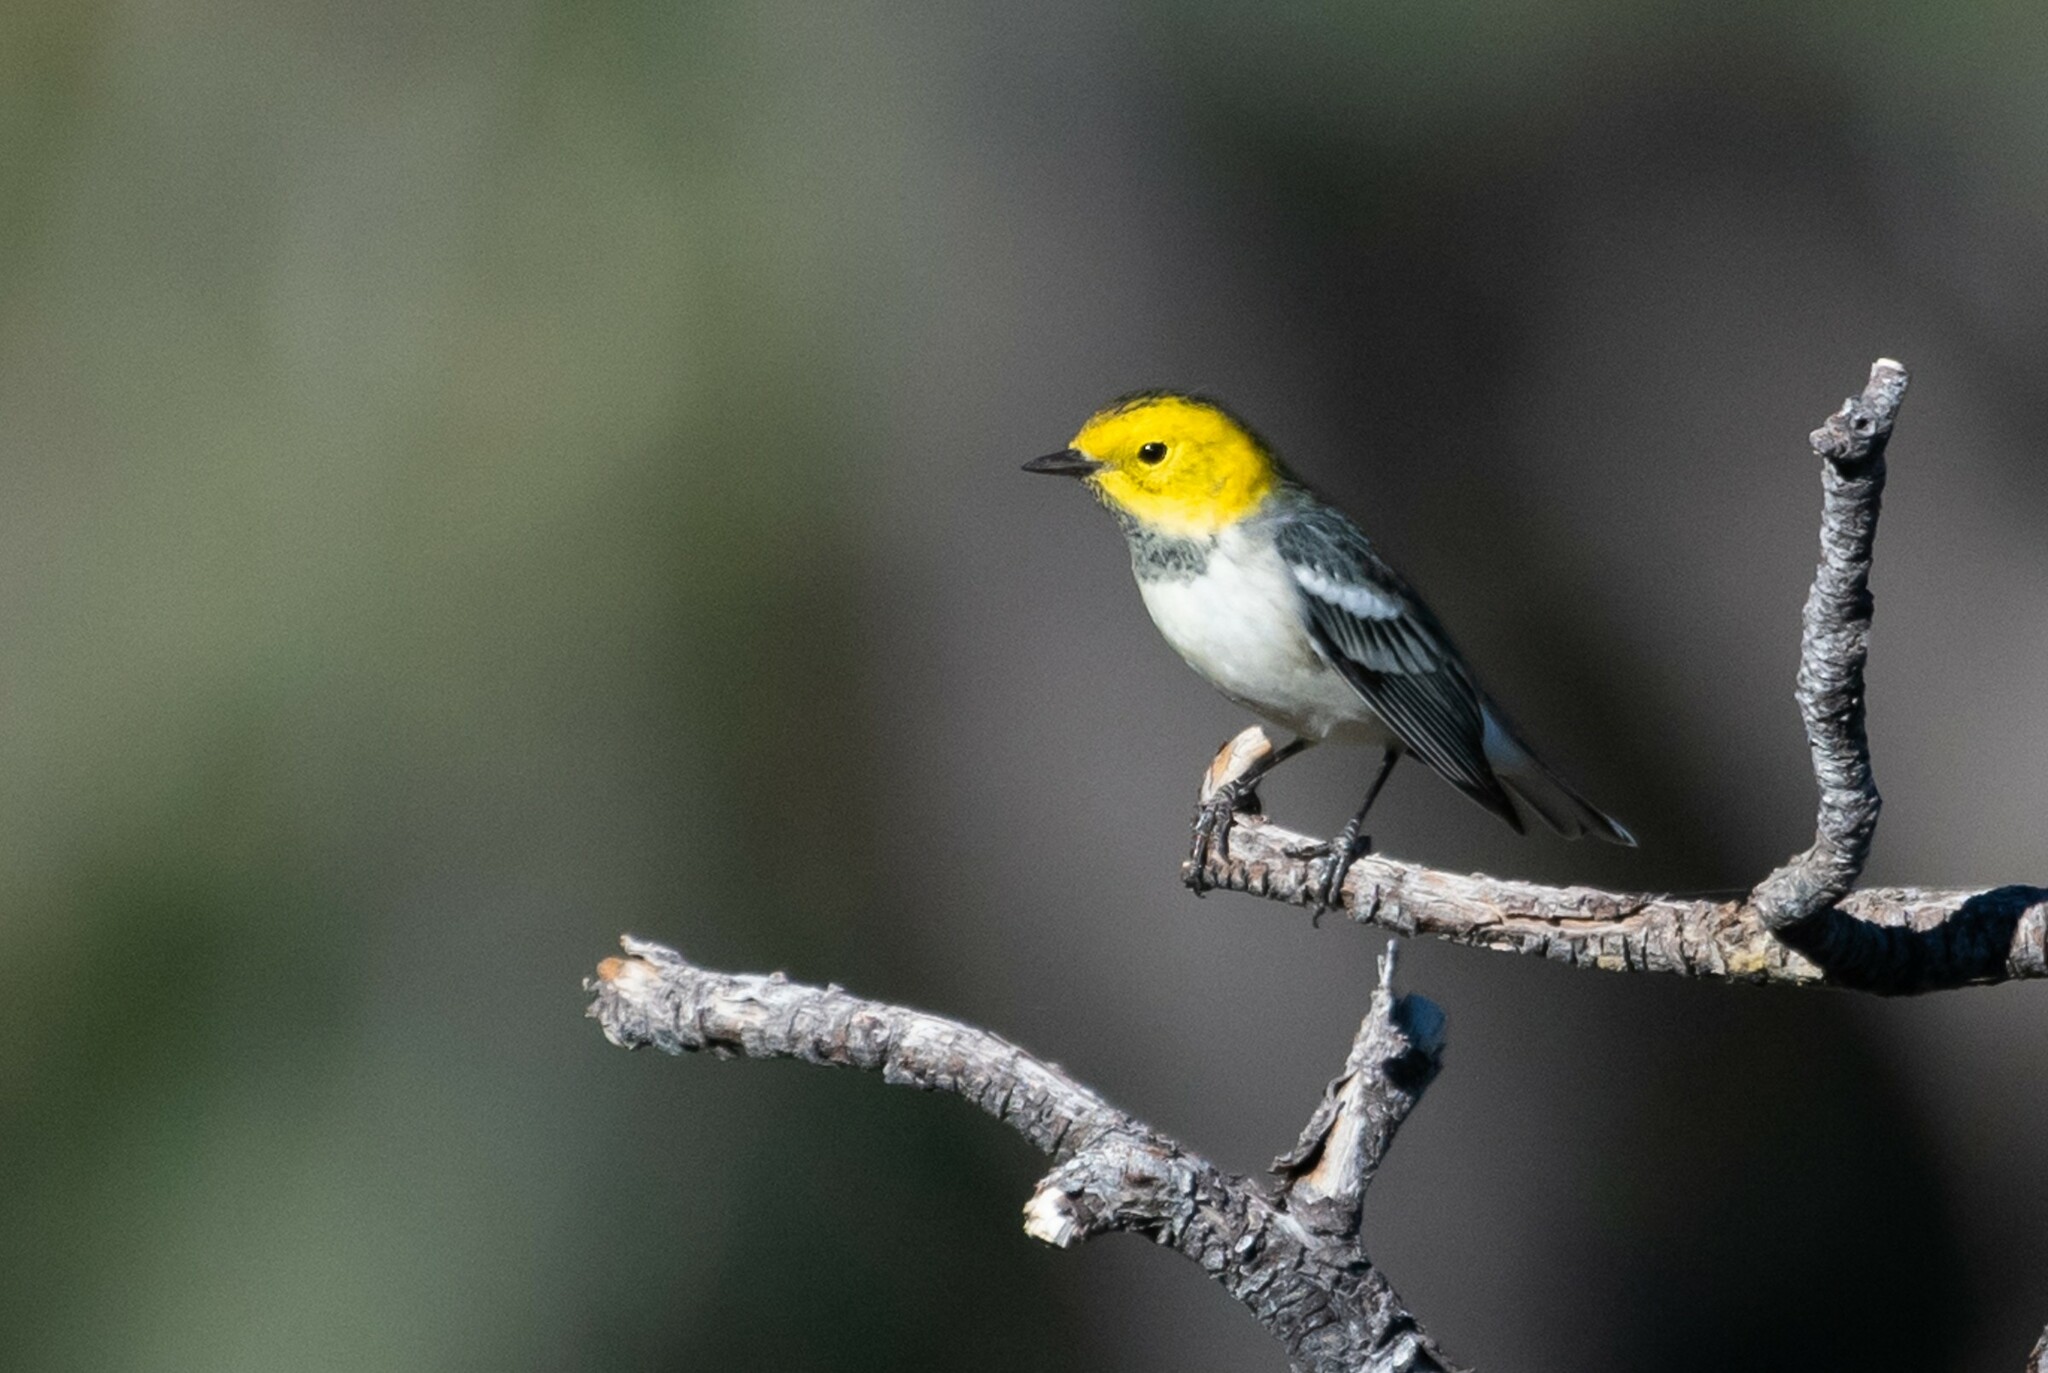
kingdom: Animalia
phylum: Chordata
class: Aves
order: Passeriformes
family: Parulidae
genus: Setophaga
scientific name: Setophaga occidentalis
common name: Hermit warbler
